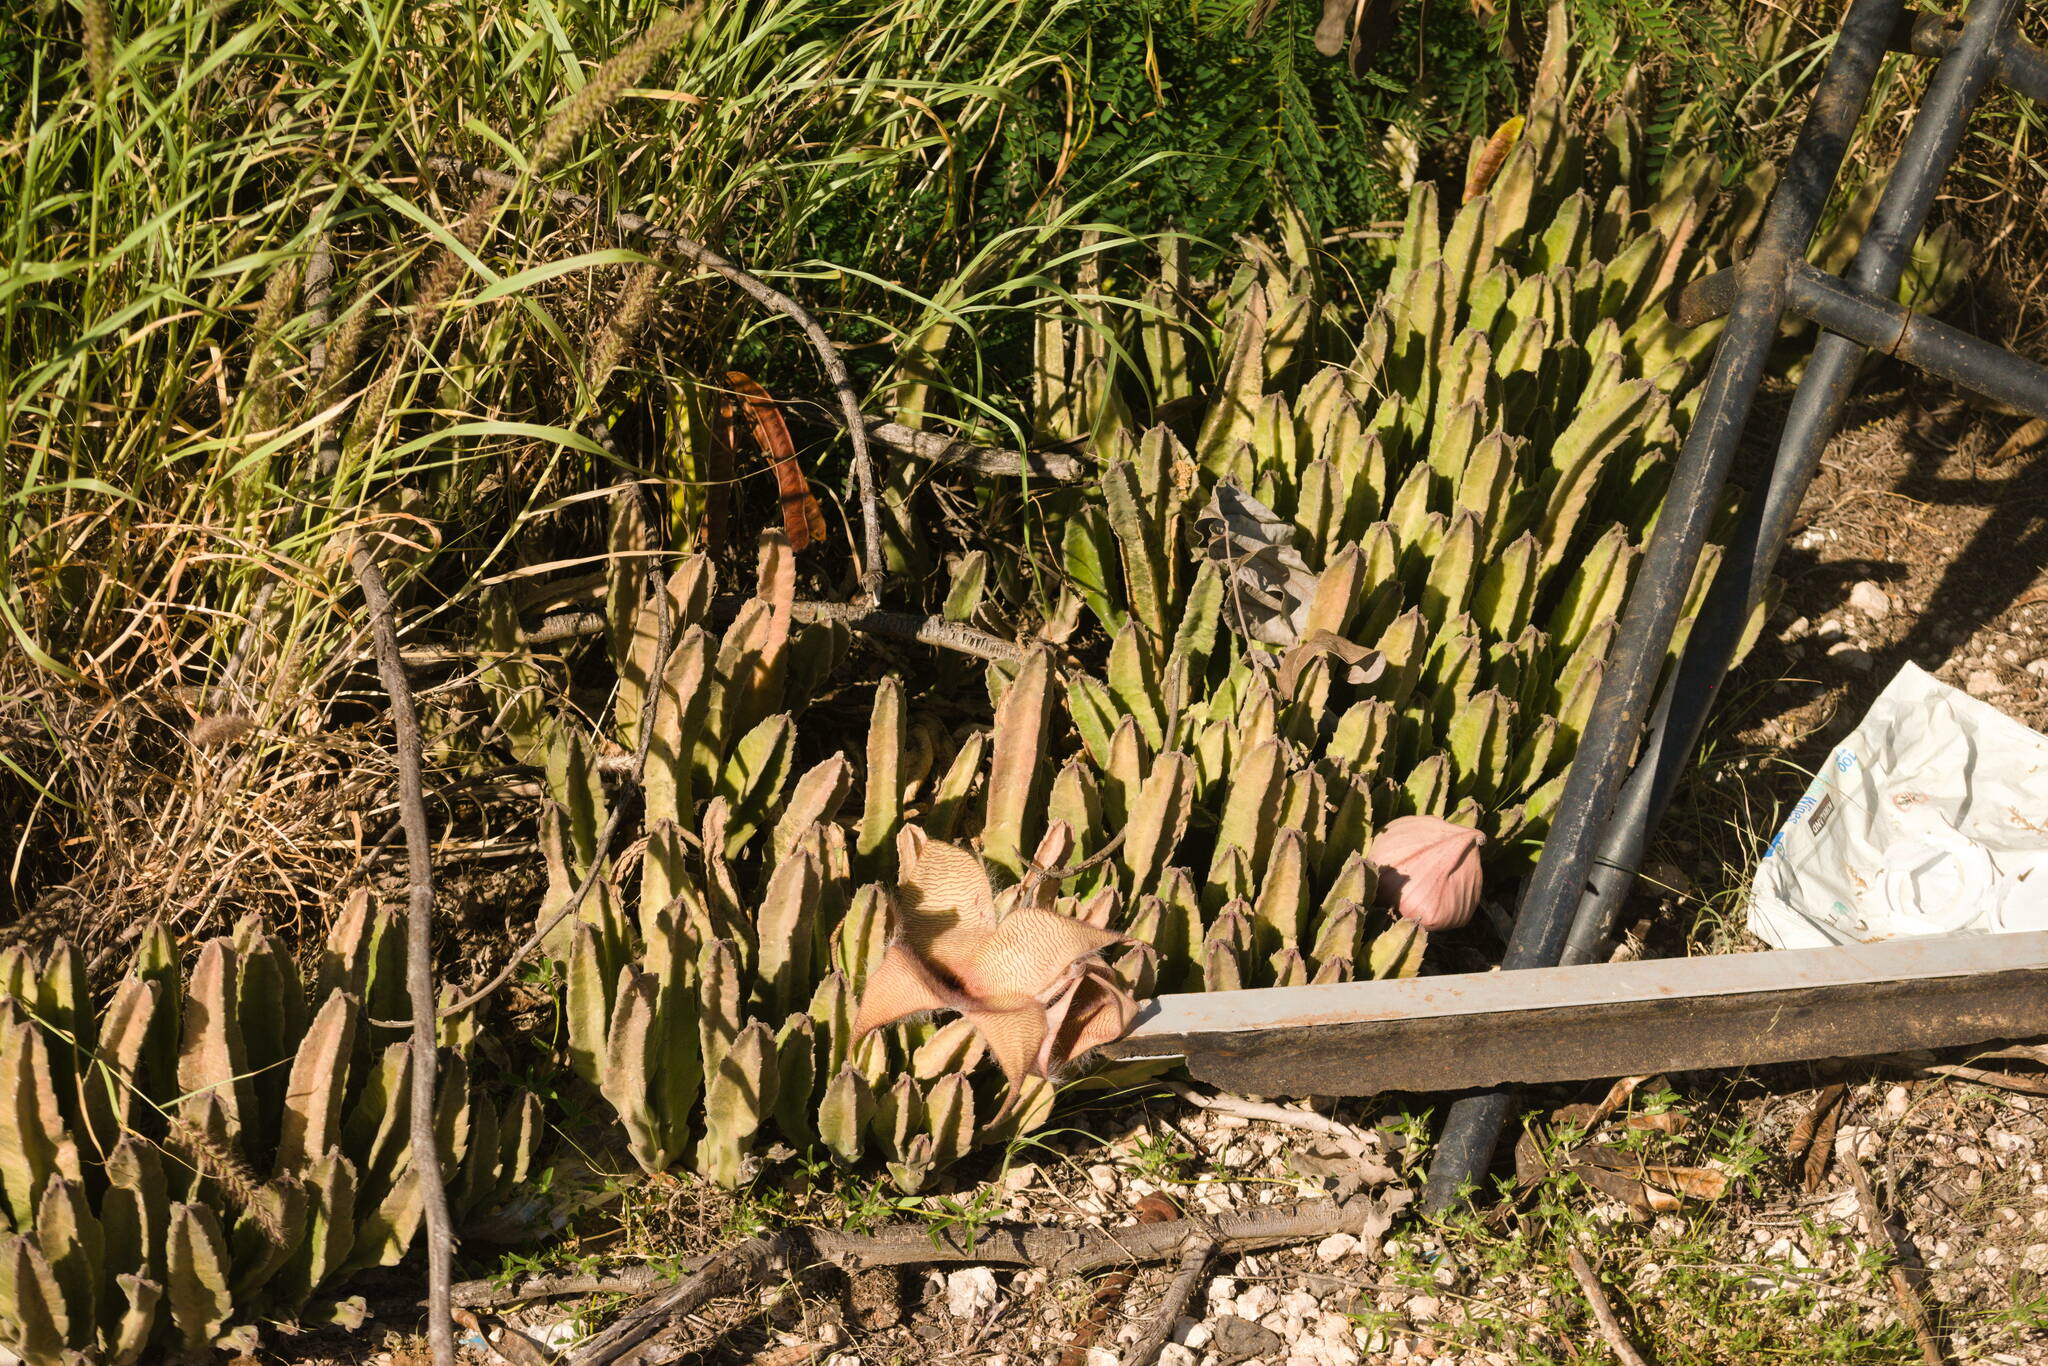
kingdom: Plantae
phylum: Tracheophyta
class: Magnoliopsida
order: Gentianales
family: Apocynaceae
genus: Ceropegia
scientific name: Ceropegia gigantea
